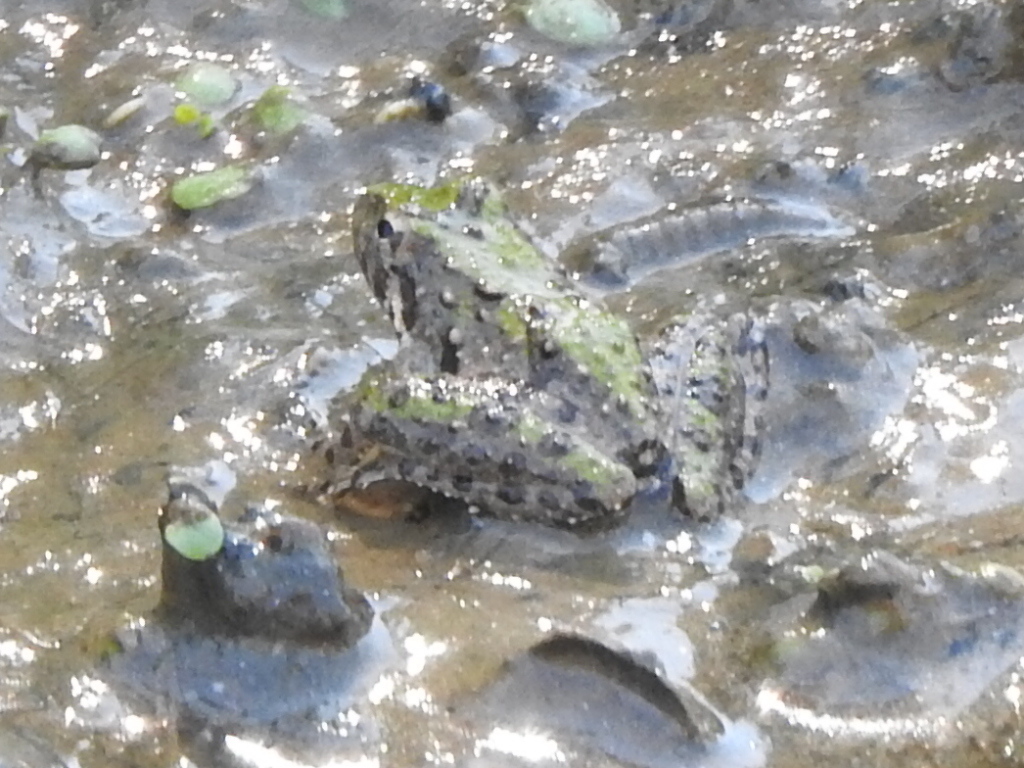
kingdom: Animalia
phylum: Chordata
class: Amphibia
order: Anura
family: Hylidae
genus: Acris
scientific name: Acris blanchardi
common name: Blanchard's cricket frog
